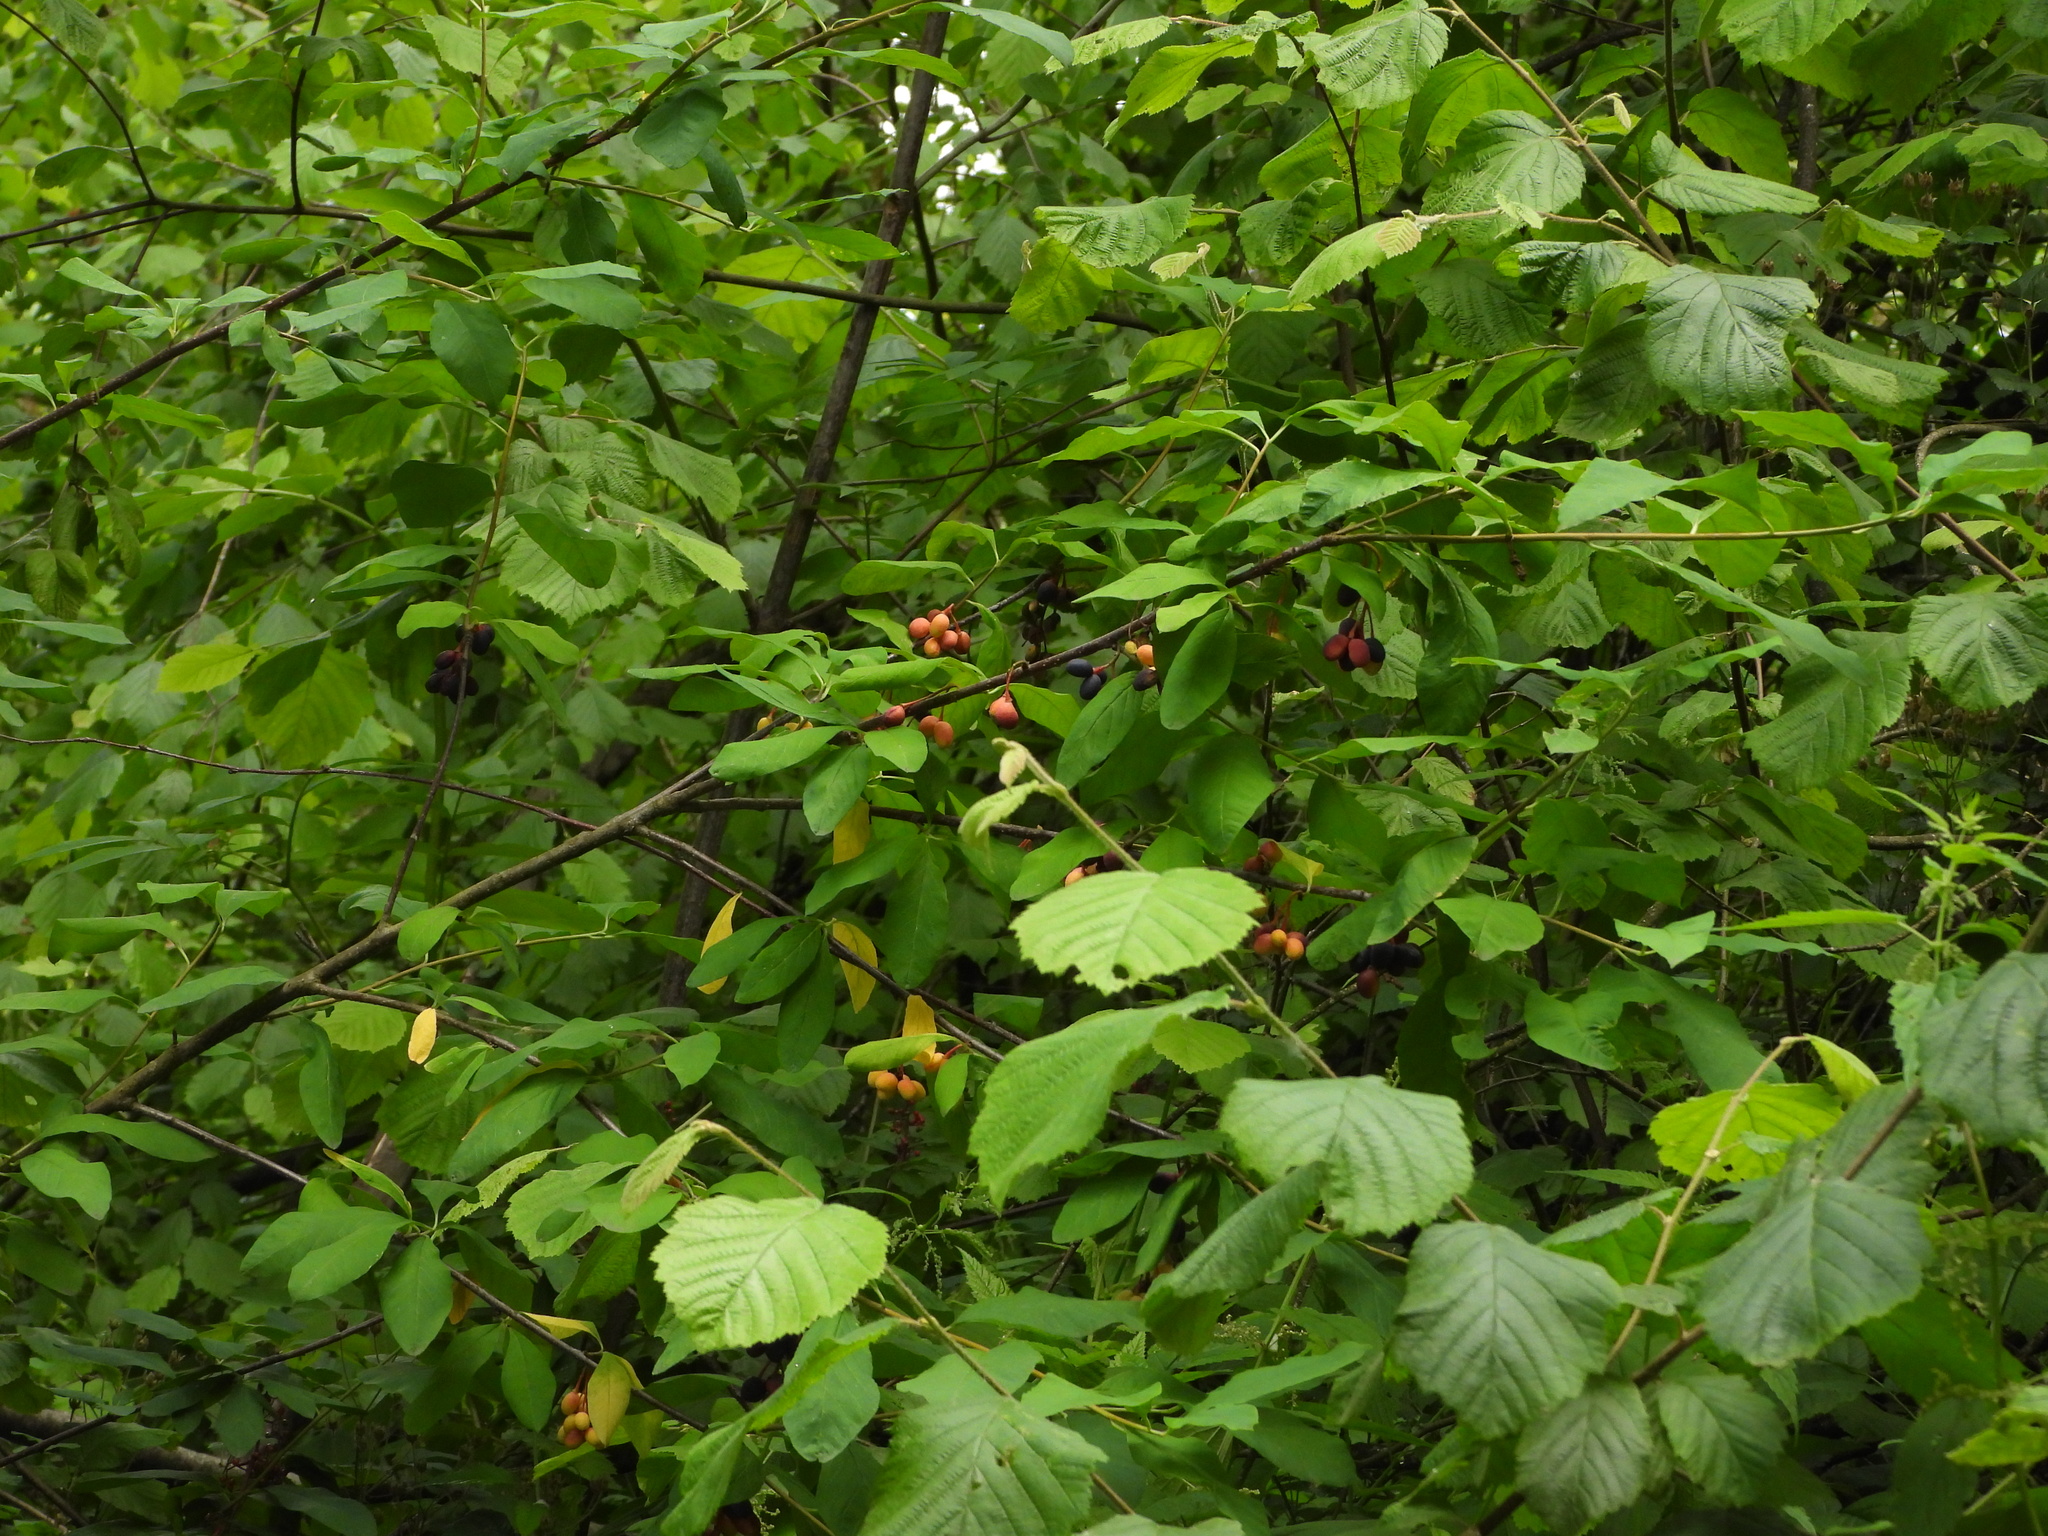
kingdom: Plantae
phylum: Tracheophyta
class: Magnoliopsida
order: Rosales
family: Rosaceae
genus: Oemleria
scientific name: Oemleria cerasiformis
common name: Osoberry
